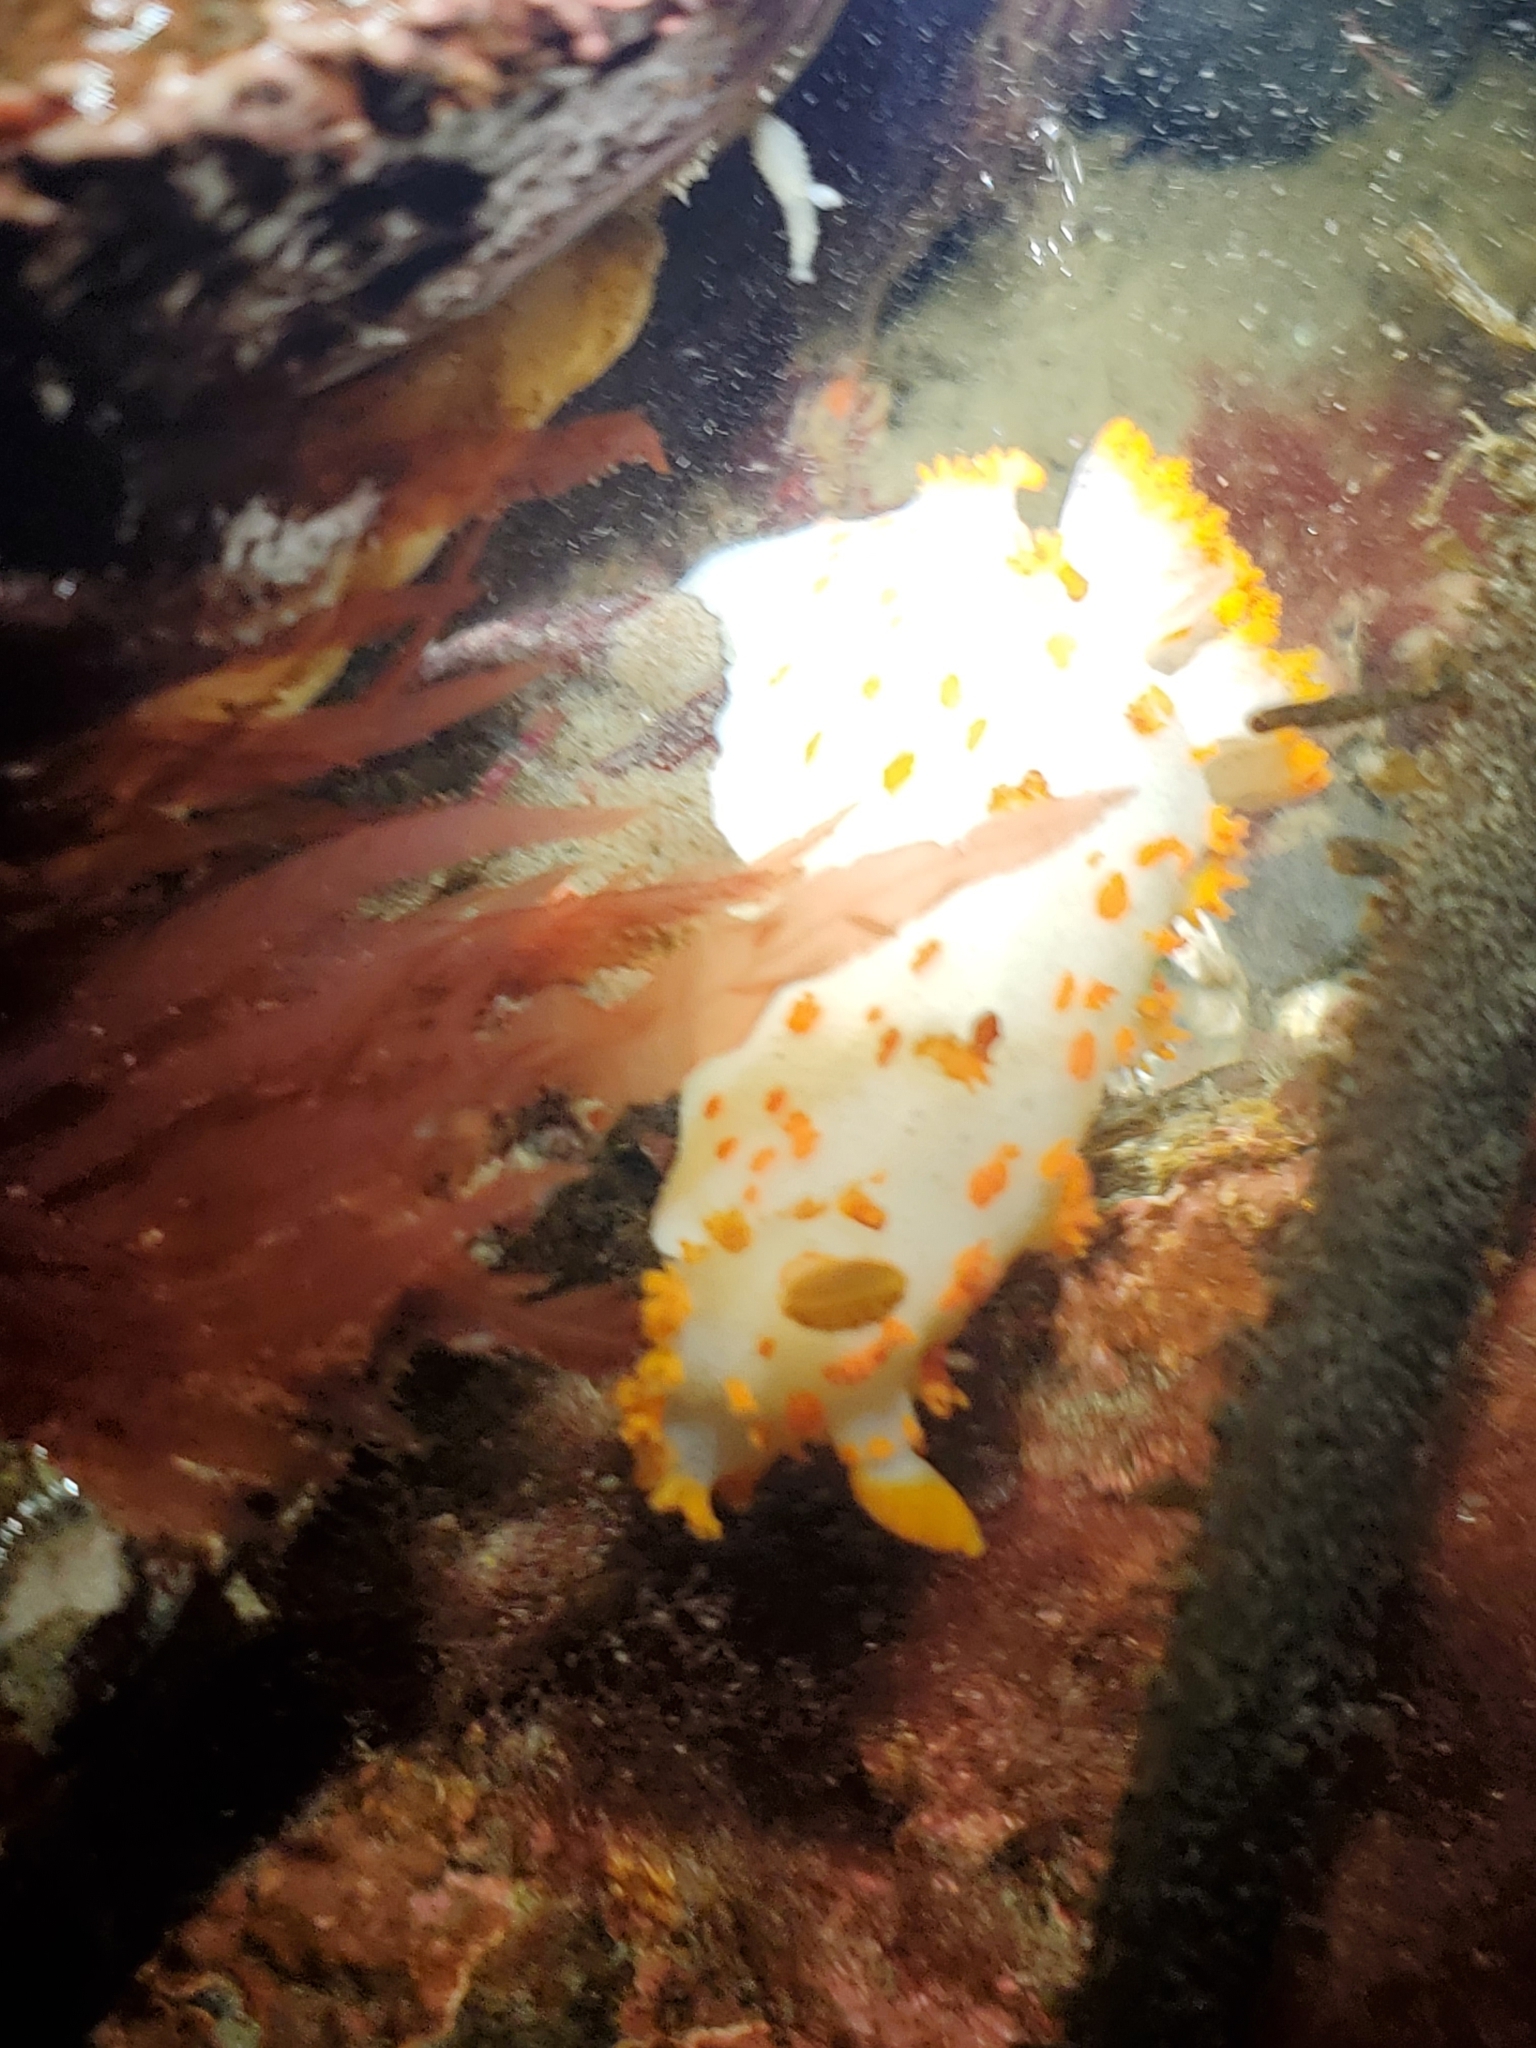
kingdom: Animalia
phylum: Mollusca
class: Gastropoda
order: Nudibranchia
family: Polyceridae
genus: Triopha
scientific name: Triopha modesta
